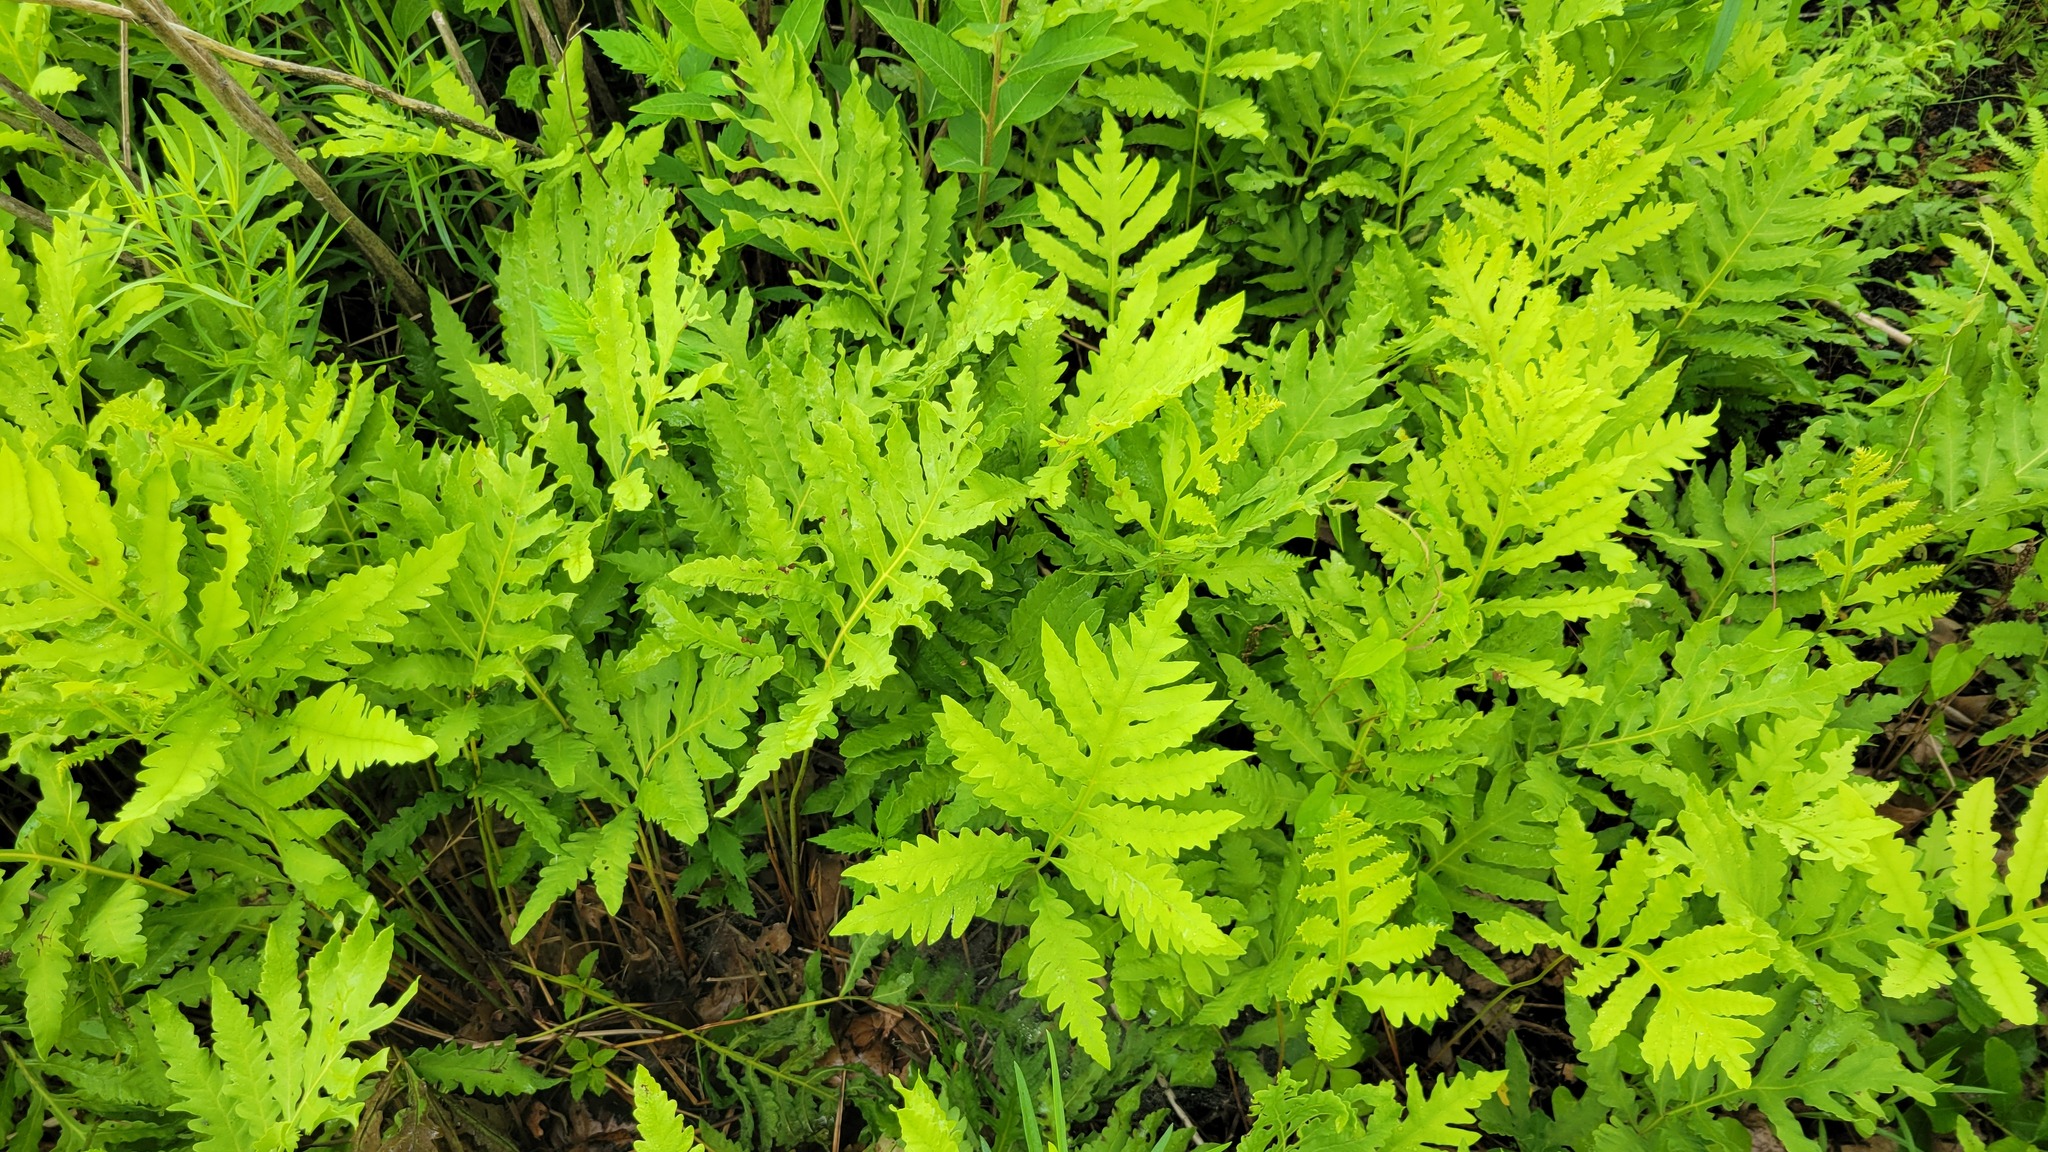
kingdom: Plantae
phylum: Tracheophyta
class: Polypodiopsida
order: Polypodiales
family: Onocleaceae
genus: Onoclea
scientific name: Onoclea sensibilis
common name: Sensitive fern
